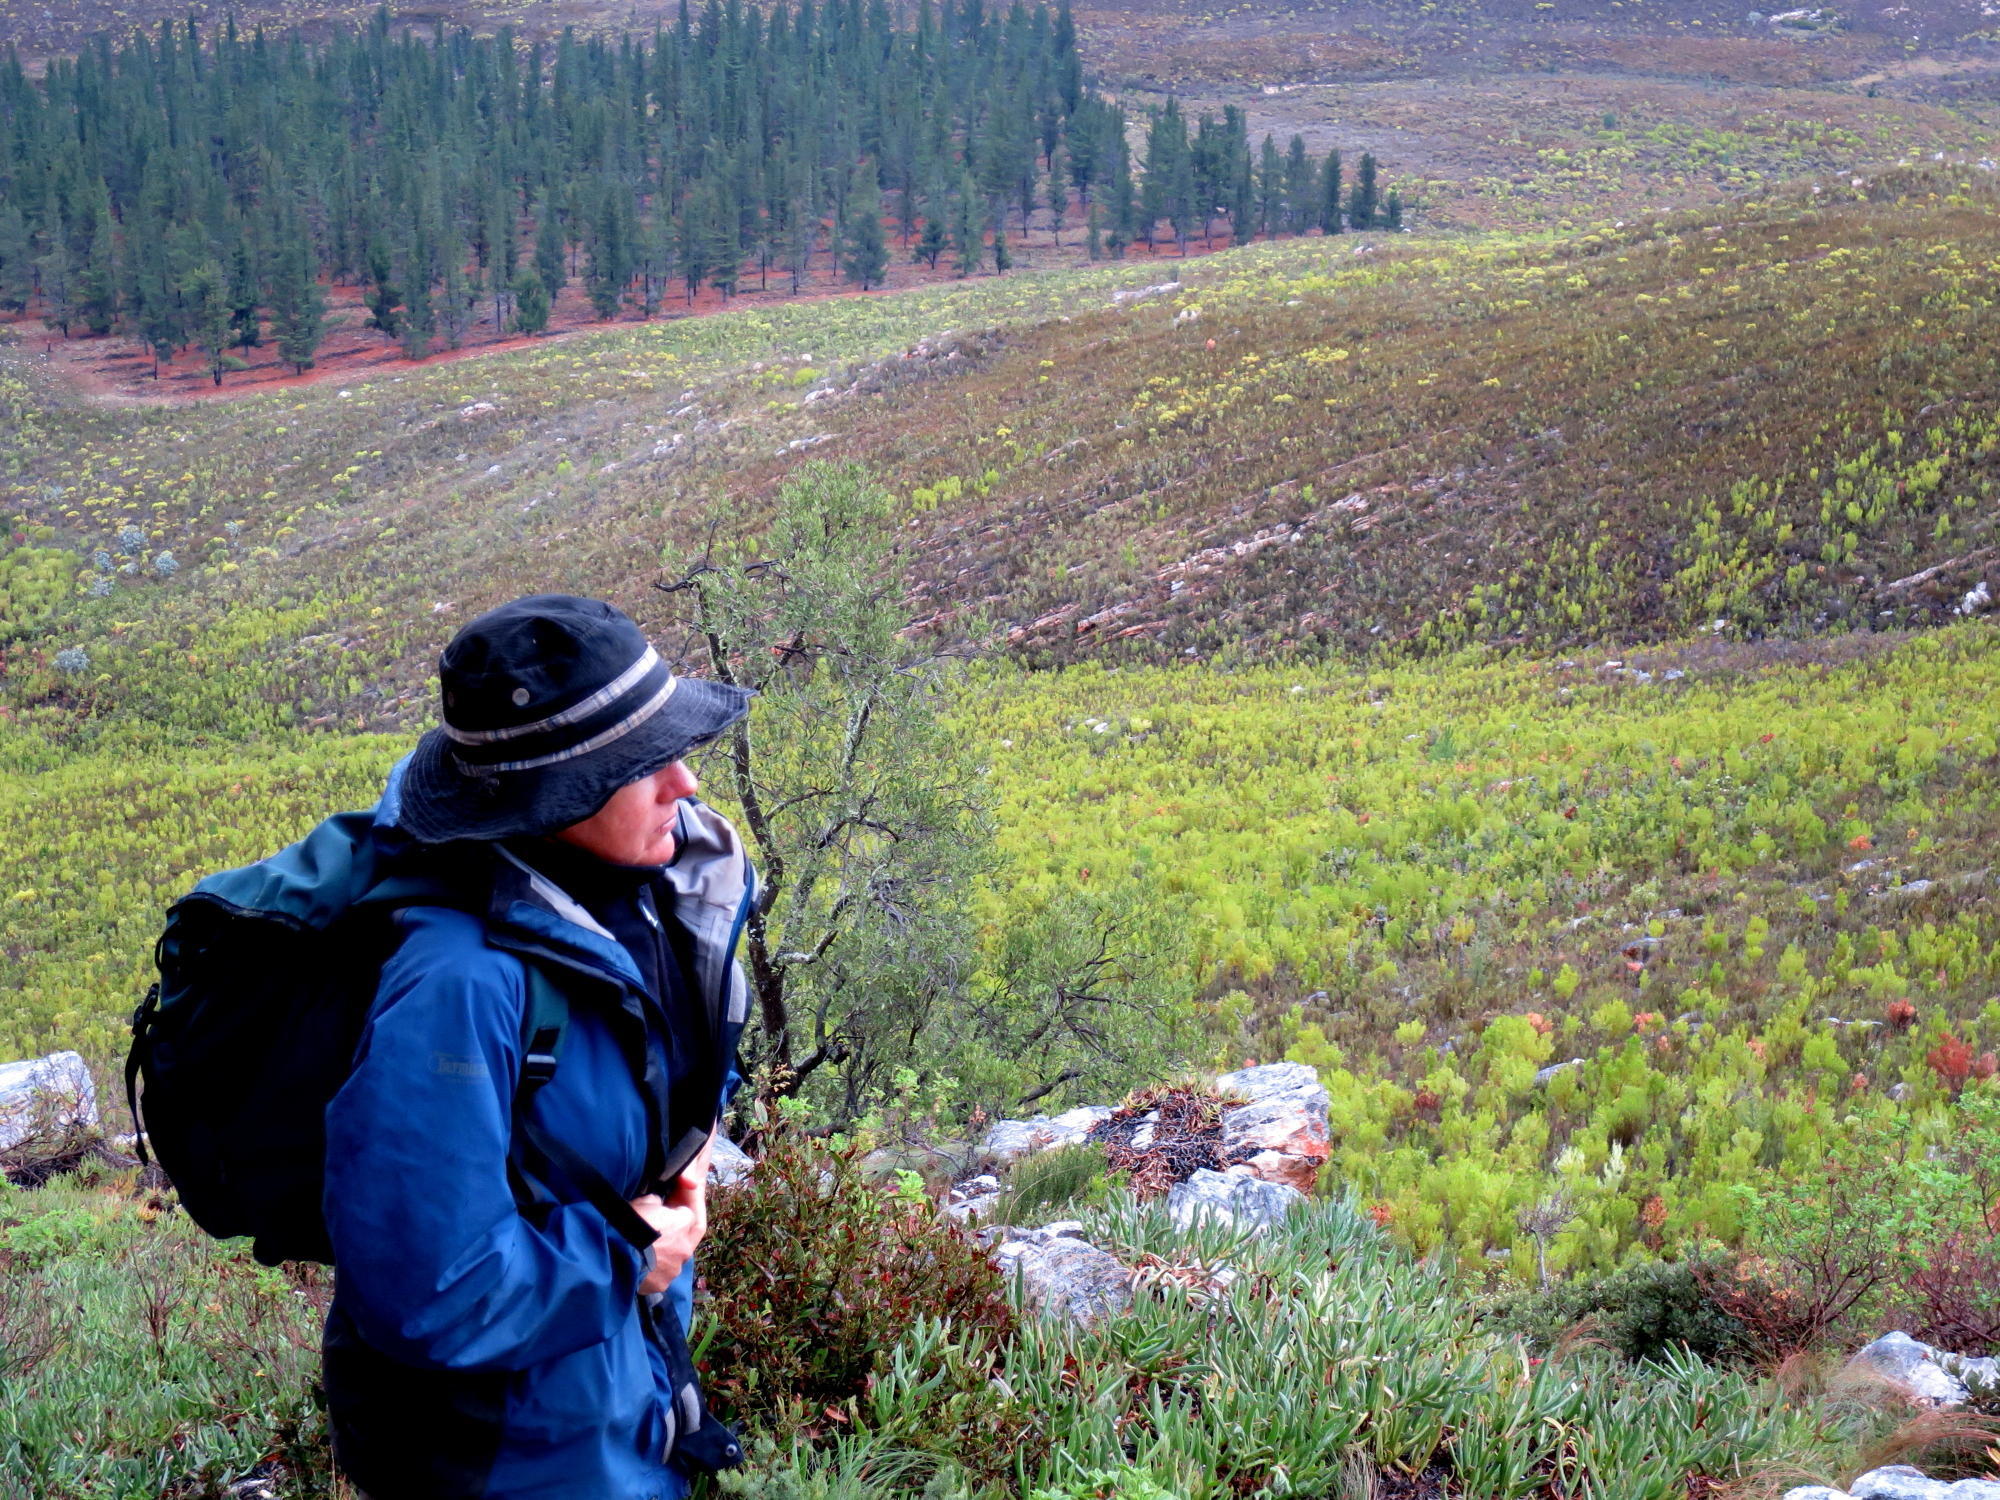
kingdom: Plantae
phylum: Tracheophyta
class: Magnoliopsida
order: Proteales
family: Proteaceae
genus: Leucadendron
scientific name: Leucadendron eucalyptifolium
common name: Gum-leaved conebush
